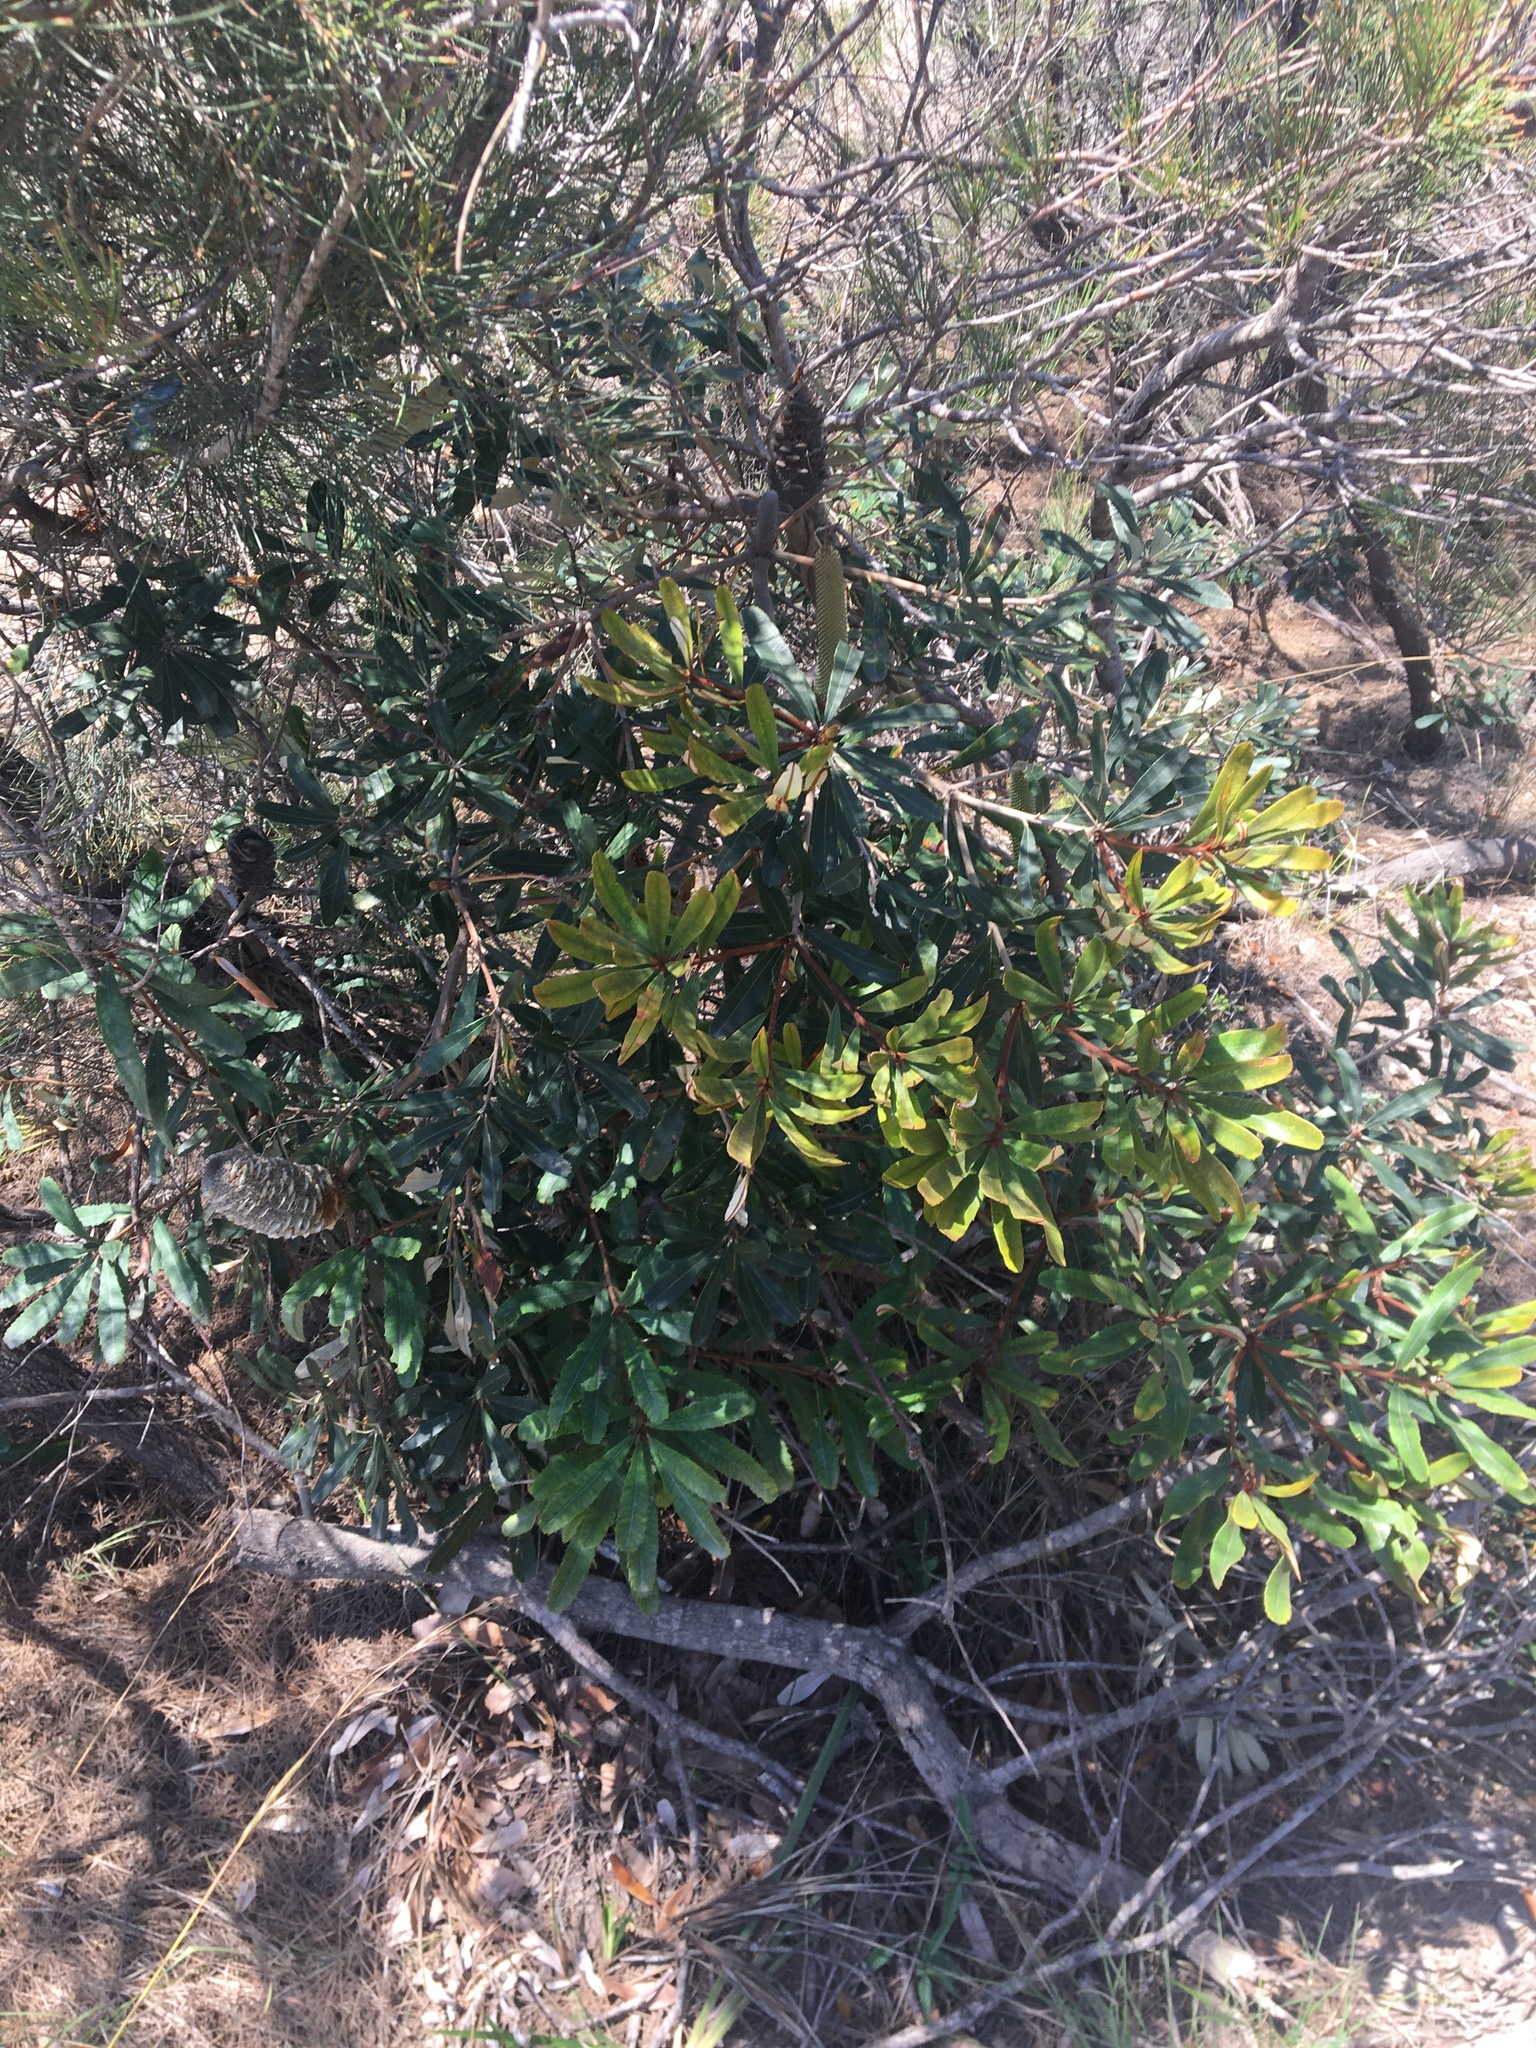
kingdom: Plantae
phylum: Tracheophyta
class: Magnoliopsida
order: Proteales
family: Proteaceae
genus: Banksia
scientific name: Banksia oblongifolia
